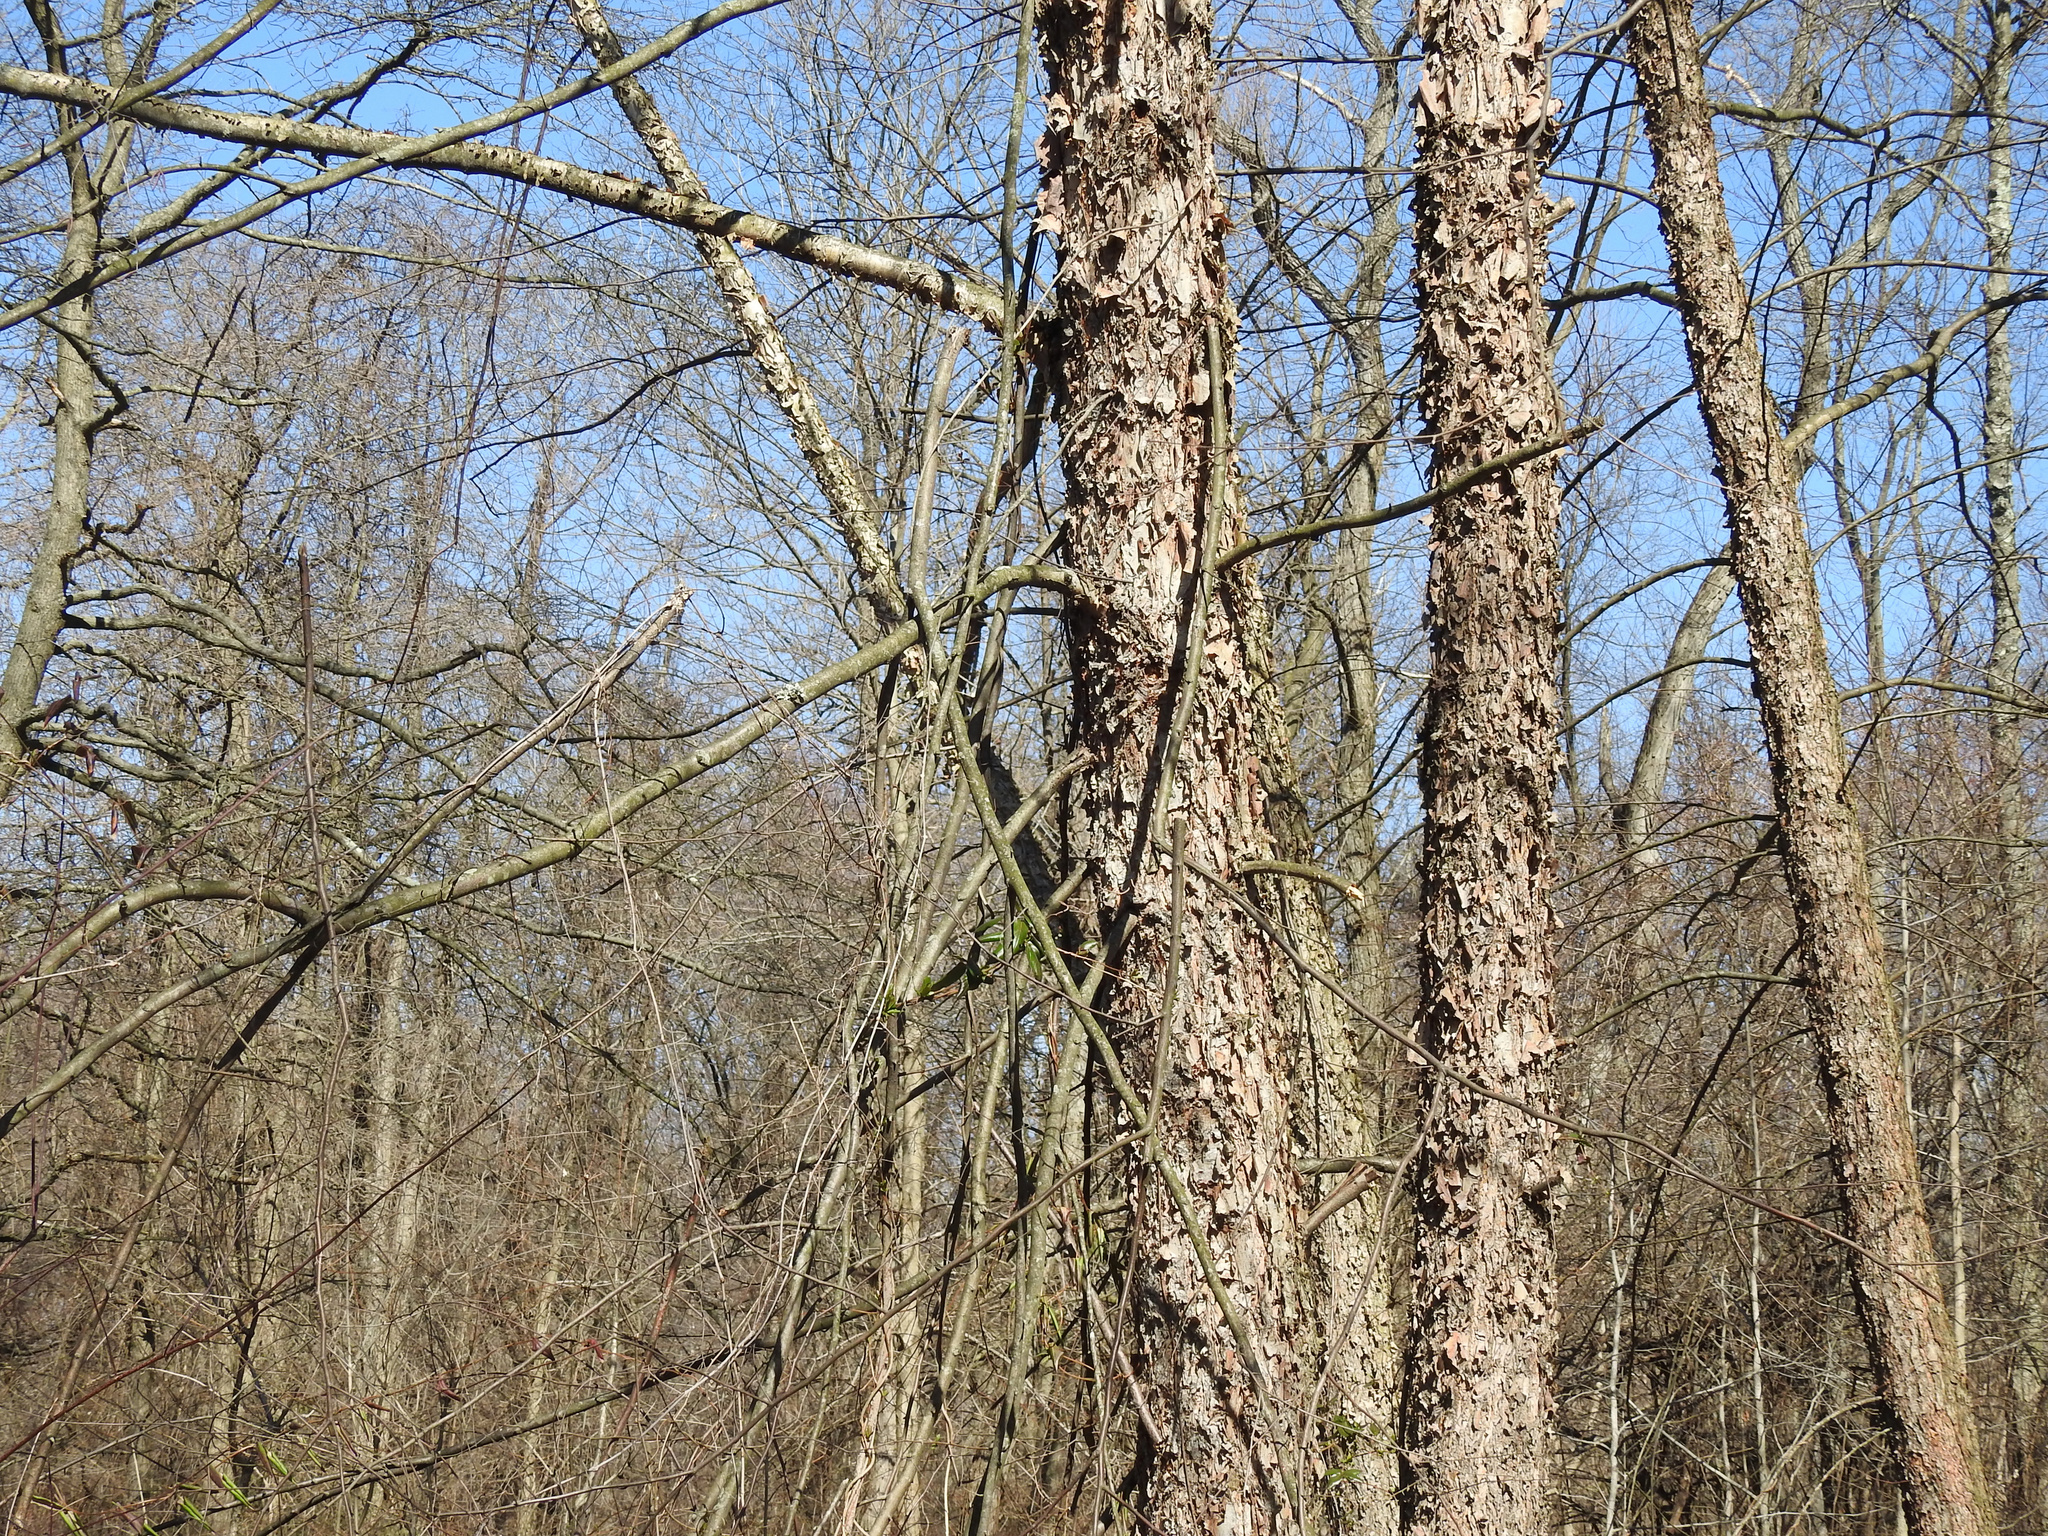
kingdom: Plantae
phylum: Tracheophyta
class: Magnoliopsida
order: Fagales
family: Betulaceae
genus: Betula
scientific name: Betula nigra
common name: Black birch
